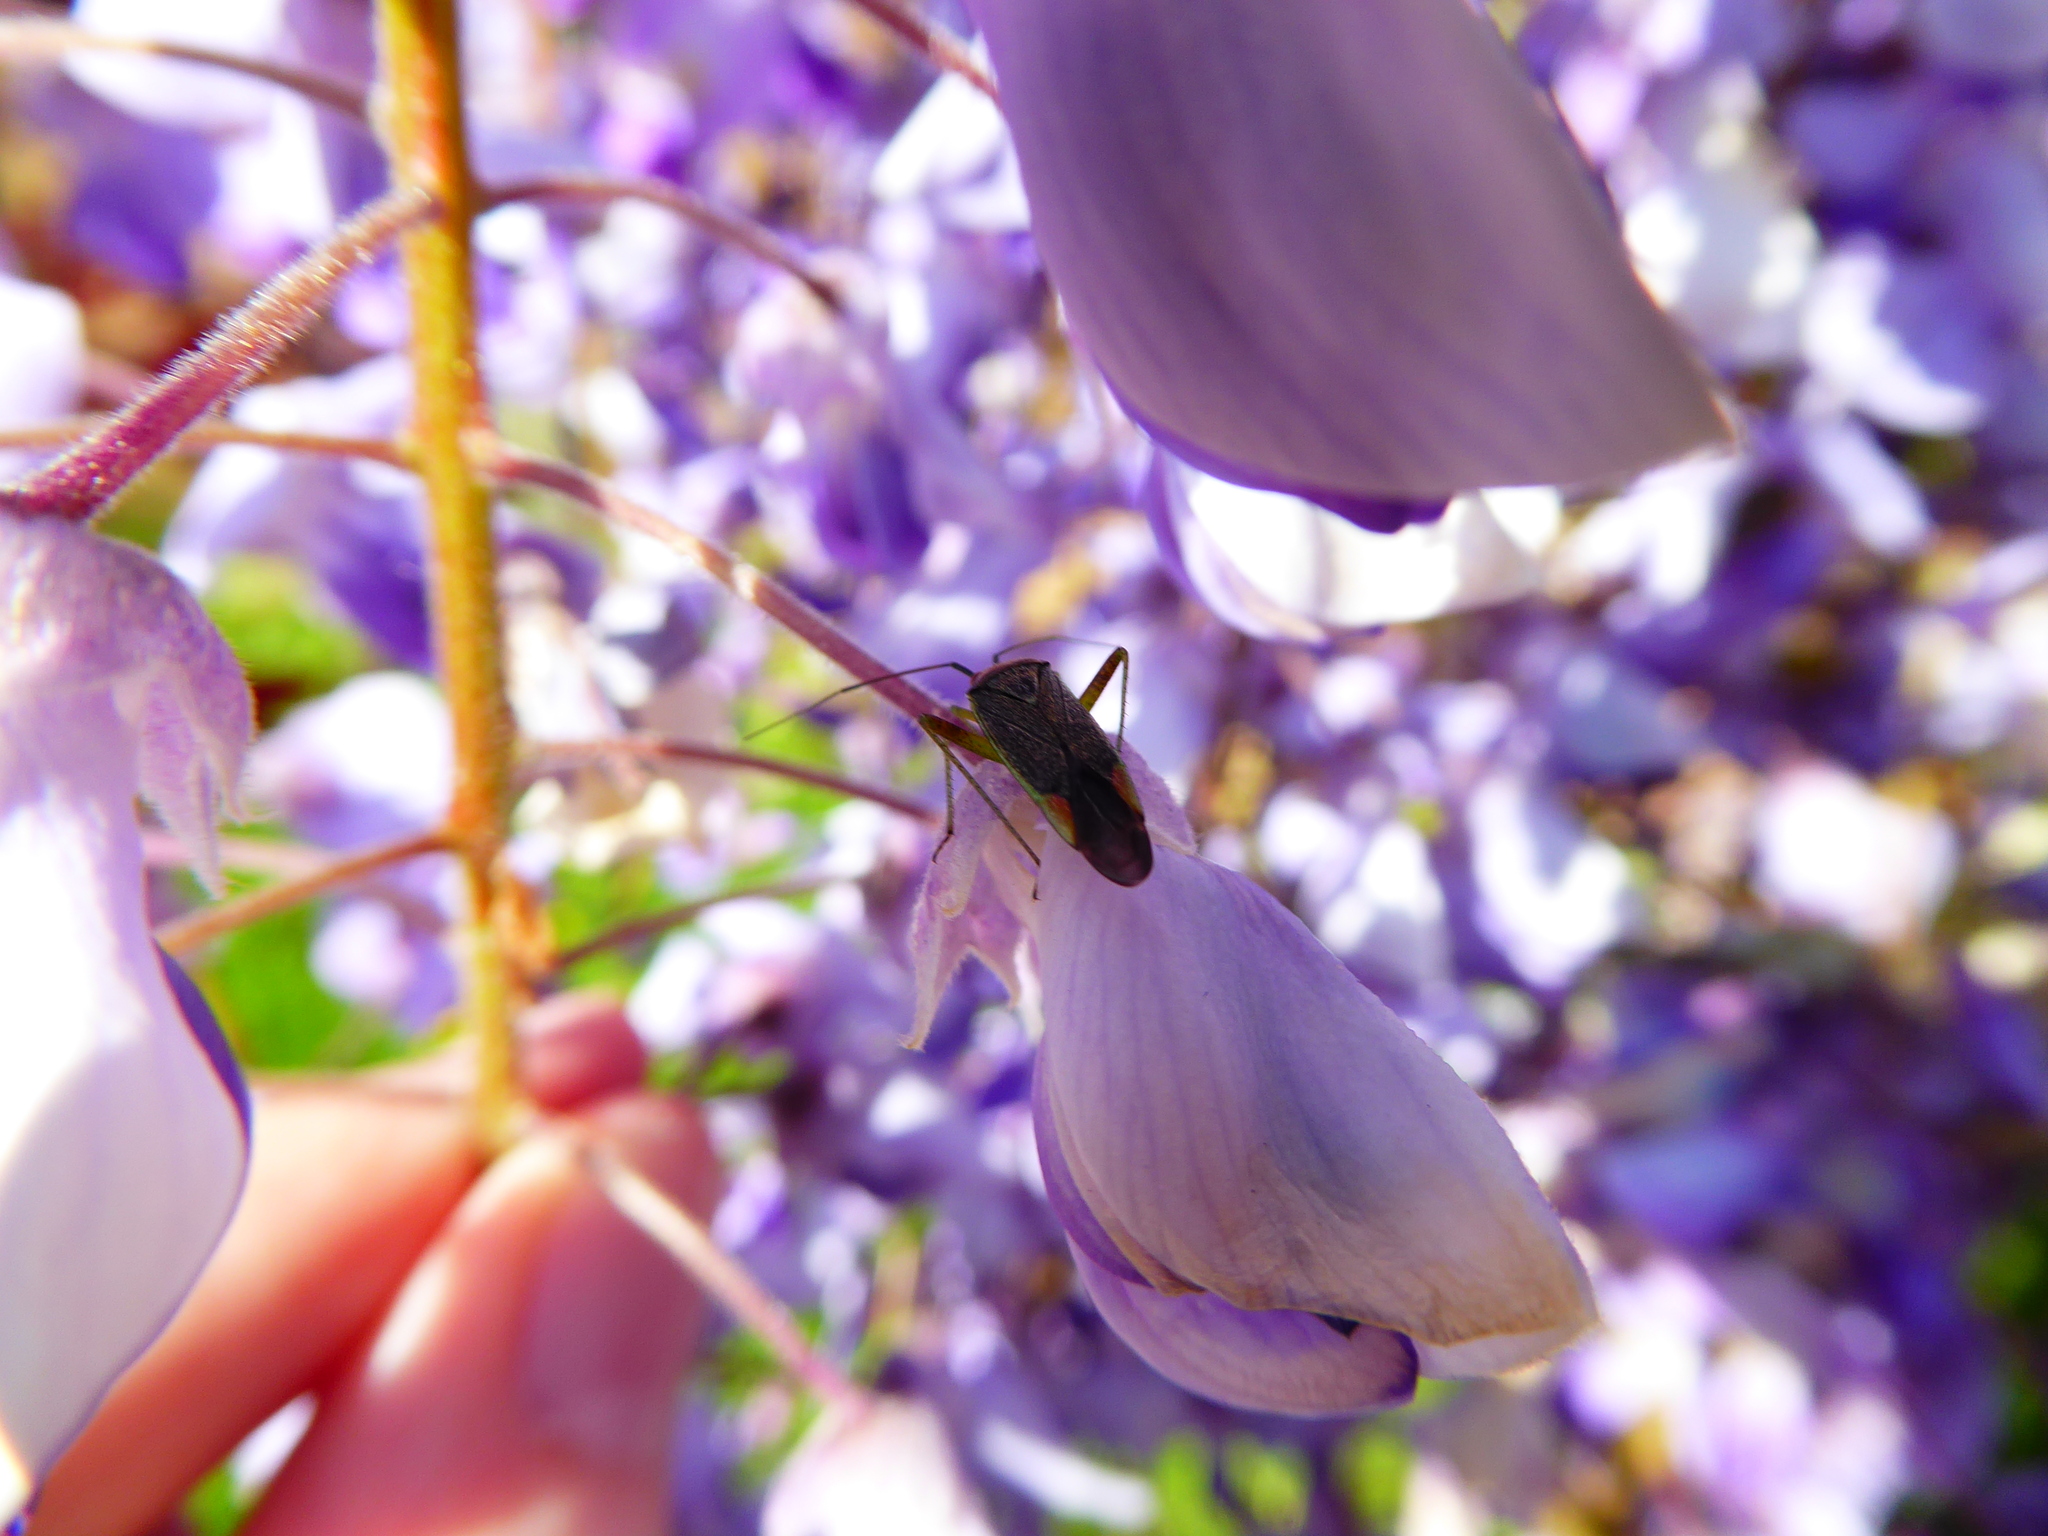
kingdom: Animalia
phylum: Arthropoda
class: Insecta
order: Hemiptera
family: Miridae
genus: Closterotomus
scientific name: Closterotomus trivialis
